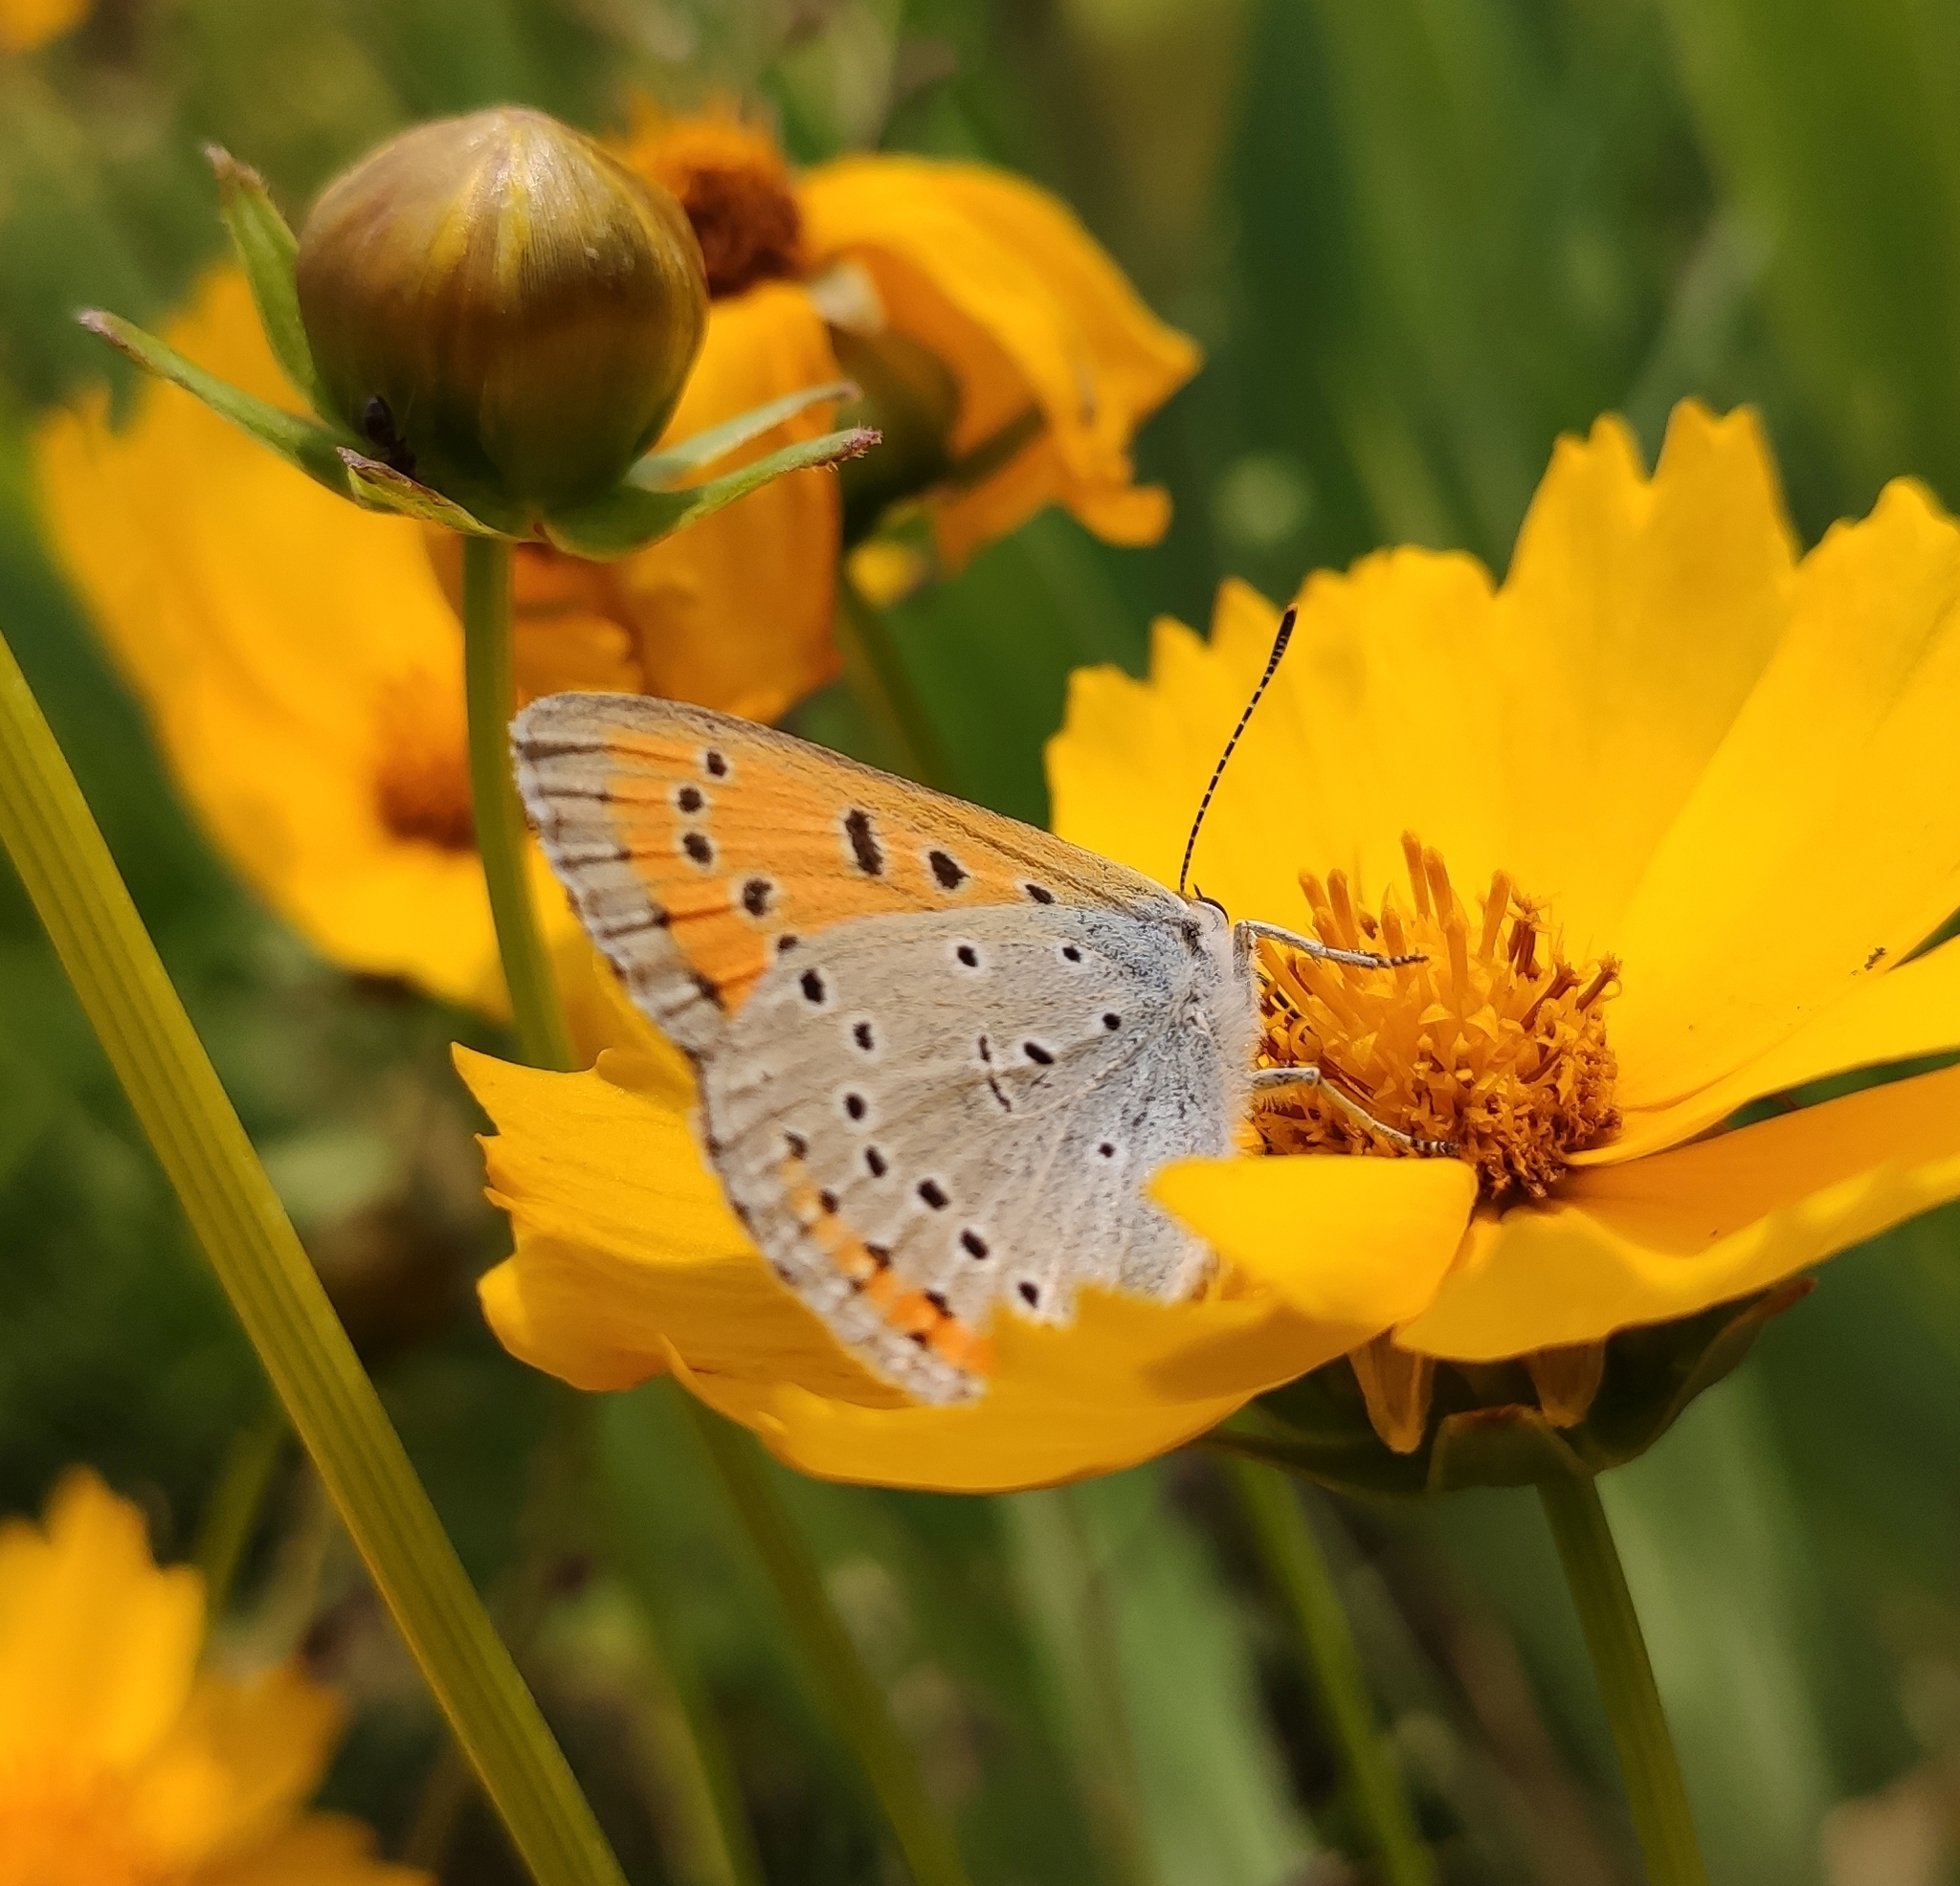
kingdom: Animalia
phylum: Arthropoda
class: Insecta
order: Lepidoptera
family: Lycaenidae
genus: Lycaena
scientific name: Lycaena dispar
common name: Large copper
